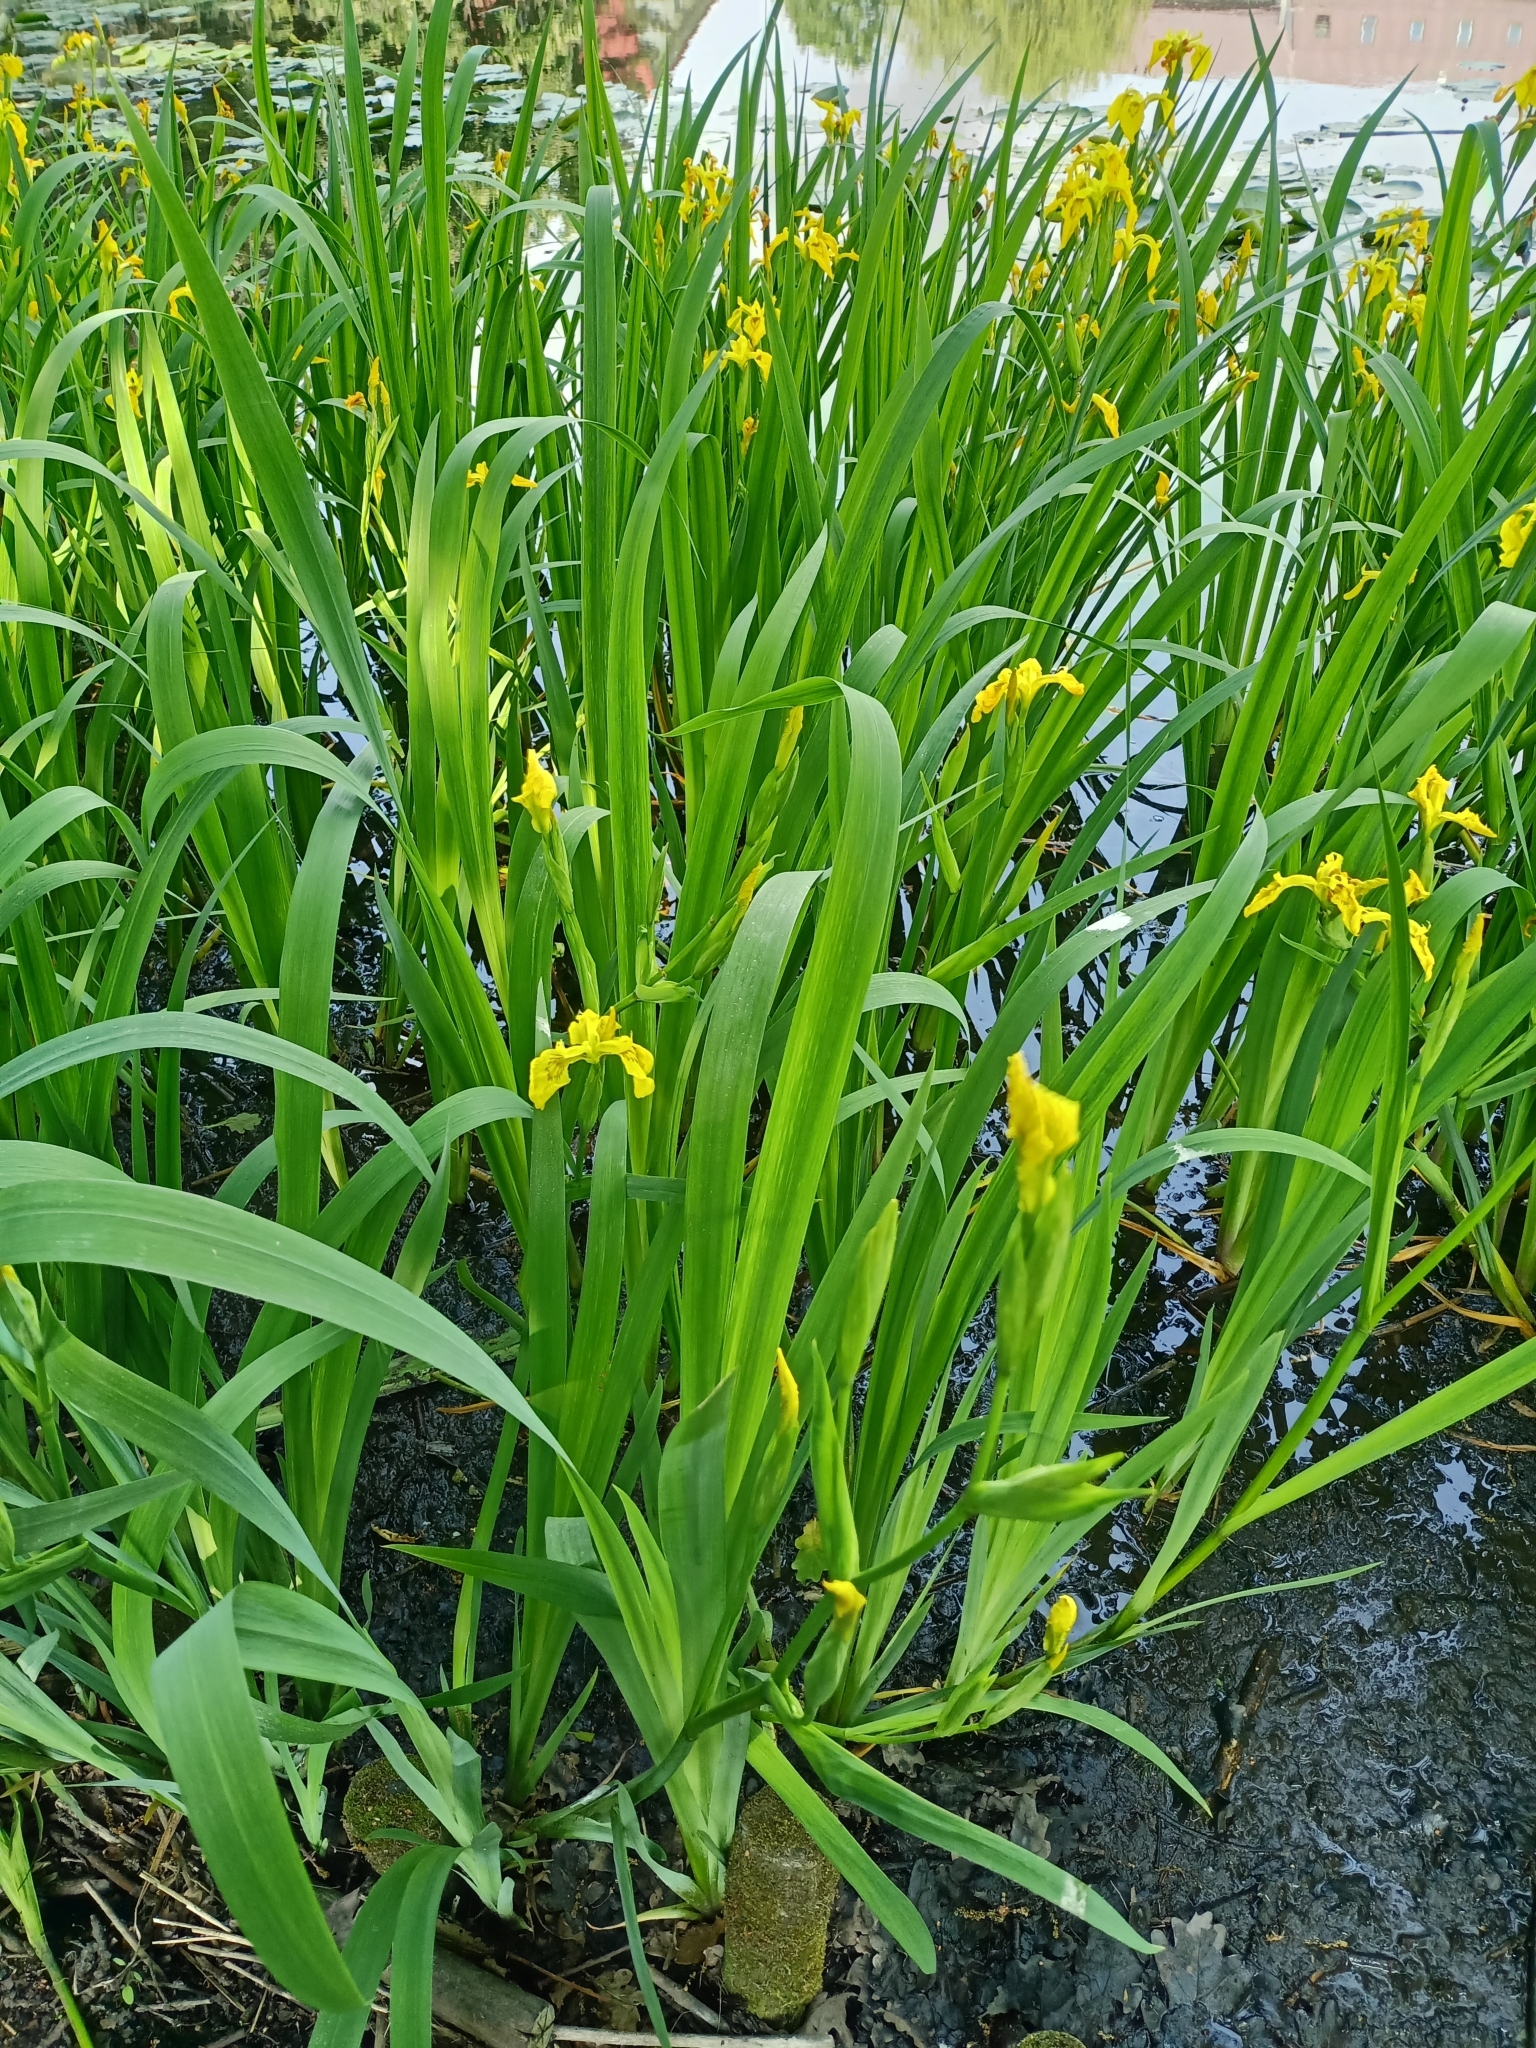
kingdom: Plantae
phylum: Tracheophyta
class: Liliopsida
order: Asparagales
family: Iridaceae
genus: Iris
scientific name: Iris pseudacorus
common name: Yellow flag
